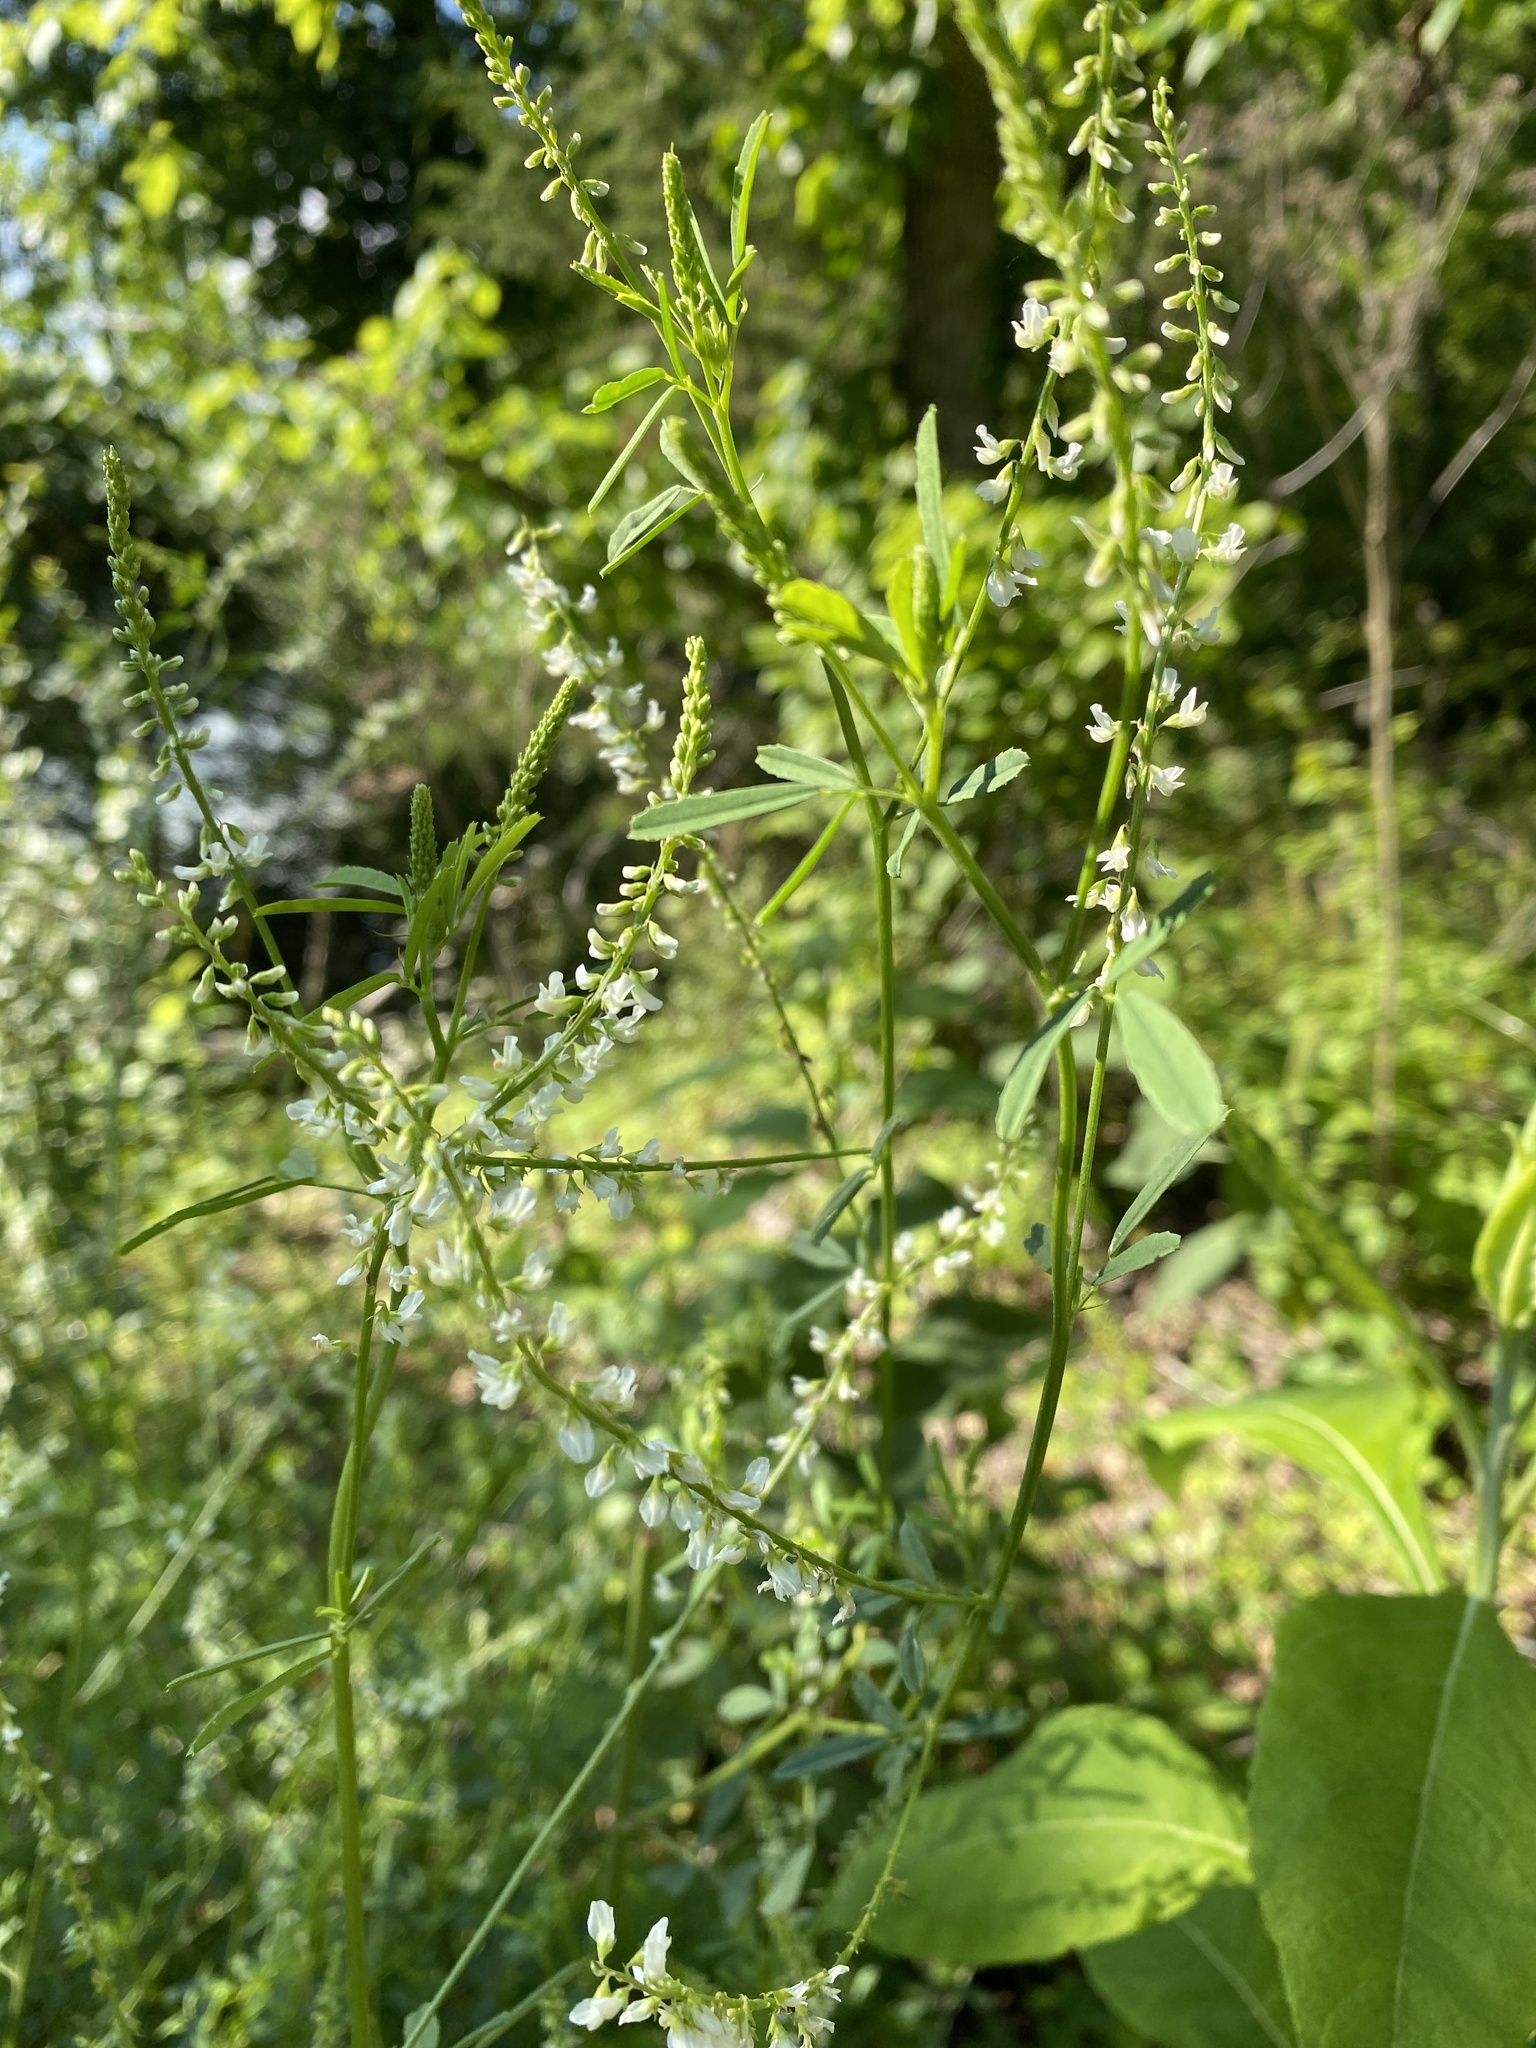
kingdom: Plantae
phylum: Tracheophyta
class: Magnoliopsida
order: Fabales
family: Fabaceae
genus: Melilotus
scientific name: Melilotus albus
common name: White melilot
